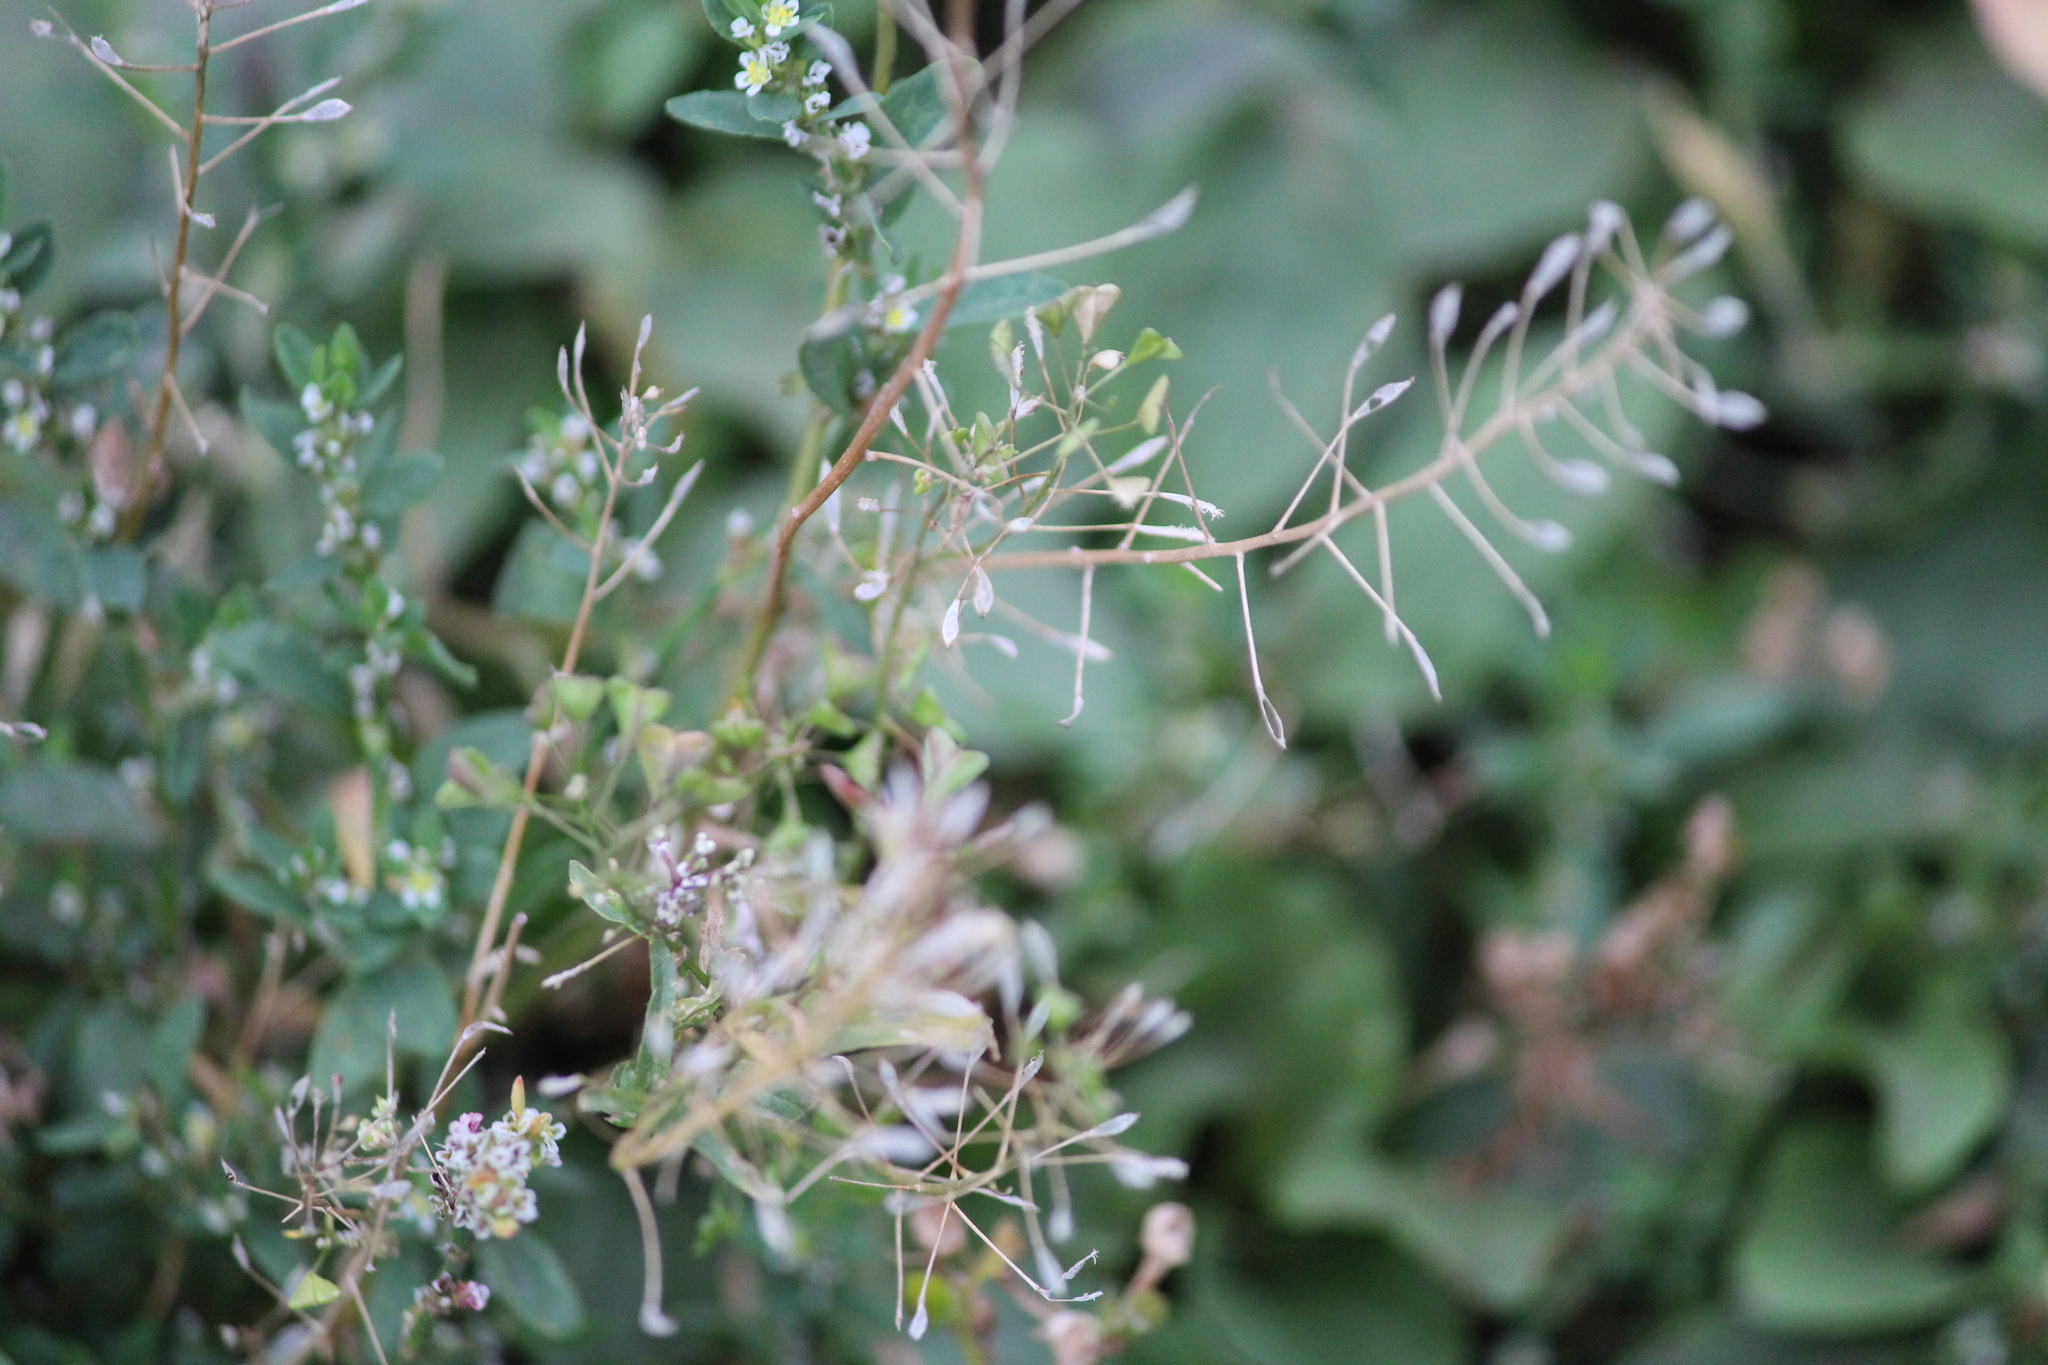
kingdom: Plantae
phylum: Tracheophyta
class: Magnoliopsida
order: Brassicales
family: Brassicaceae
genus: Capsella
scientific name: Capsella bursa-pastoris
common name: Shepherd's purse
